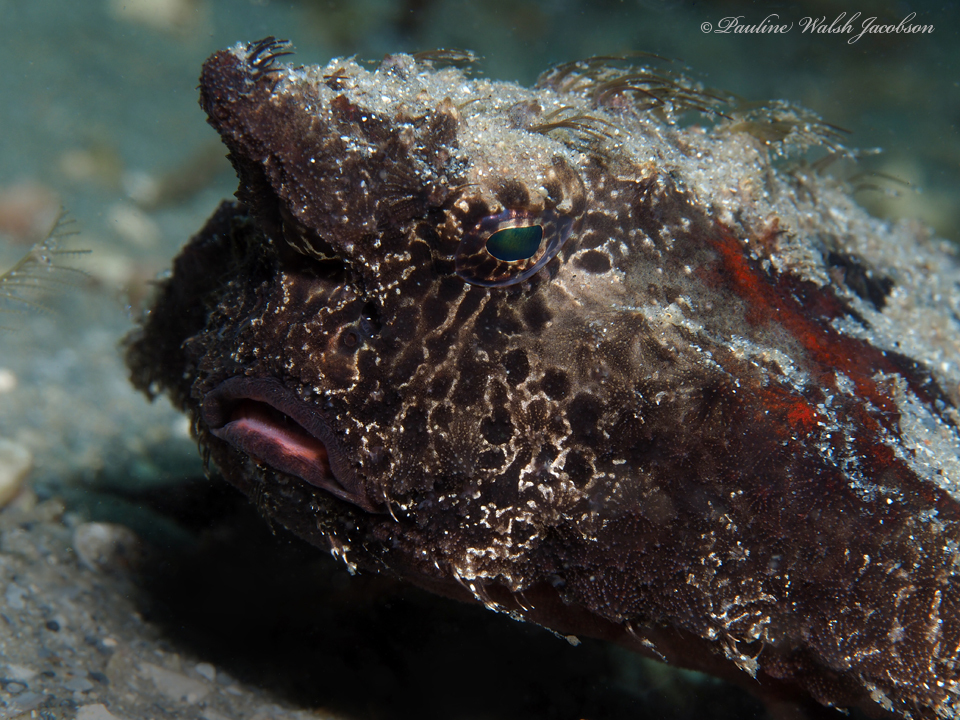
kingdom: Animalia
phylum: Chordata
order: Lophiiformes
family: Ogcocephalidae
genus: Ogcocephalus
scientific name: Ogcocephalus cubifrons
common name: Polka-dot batfish
